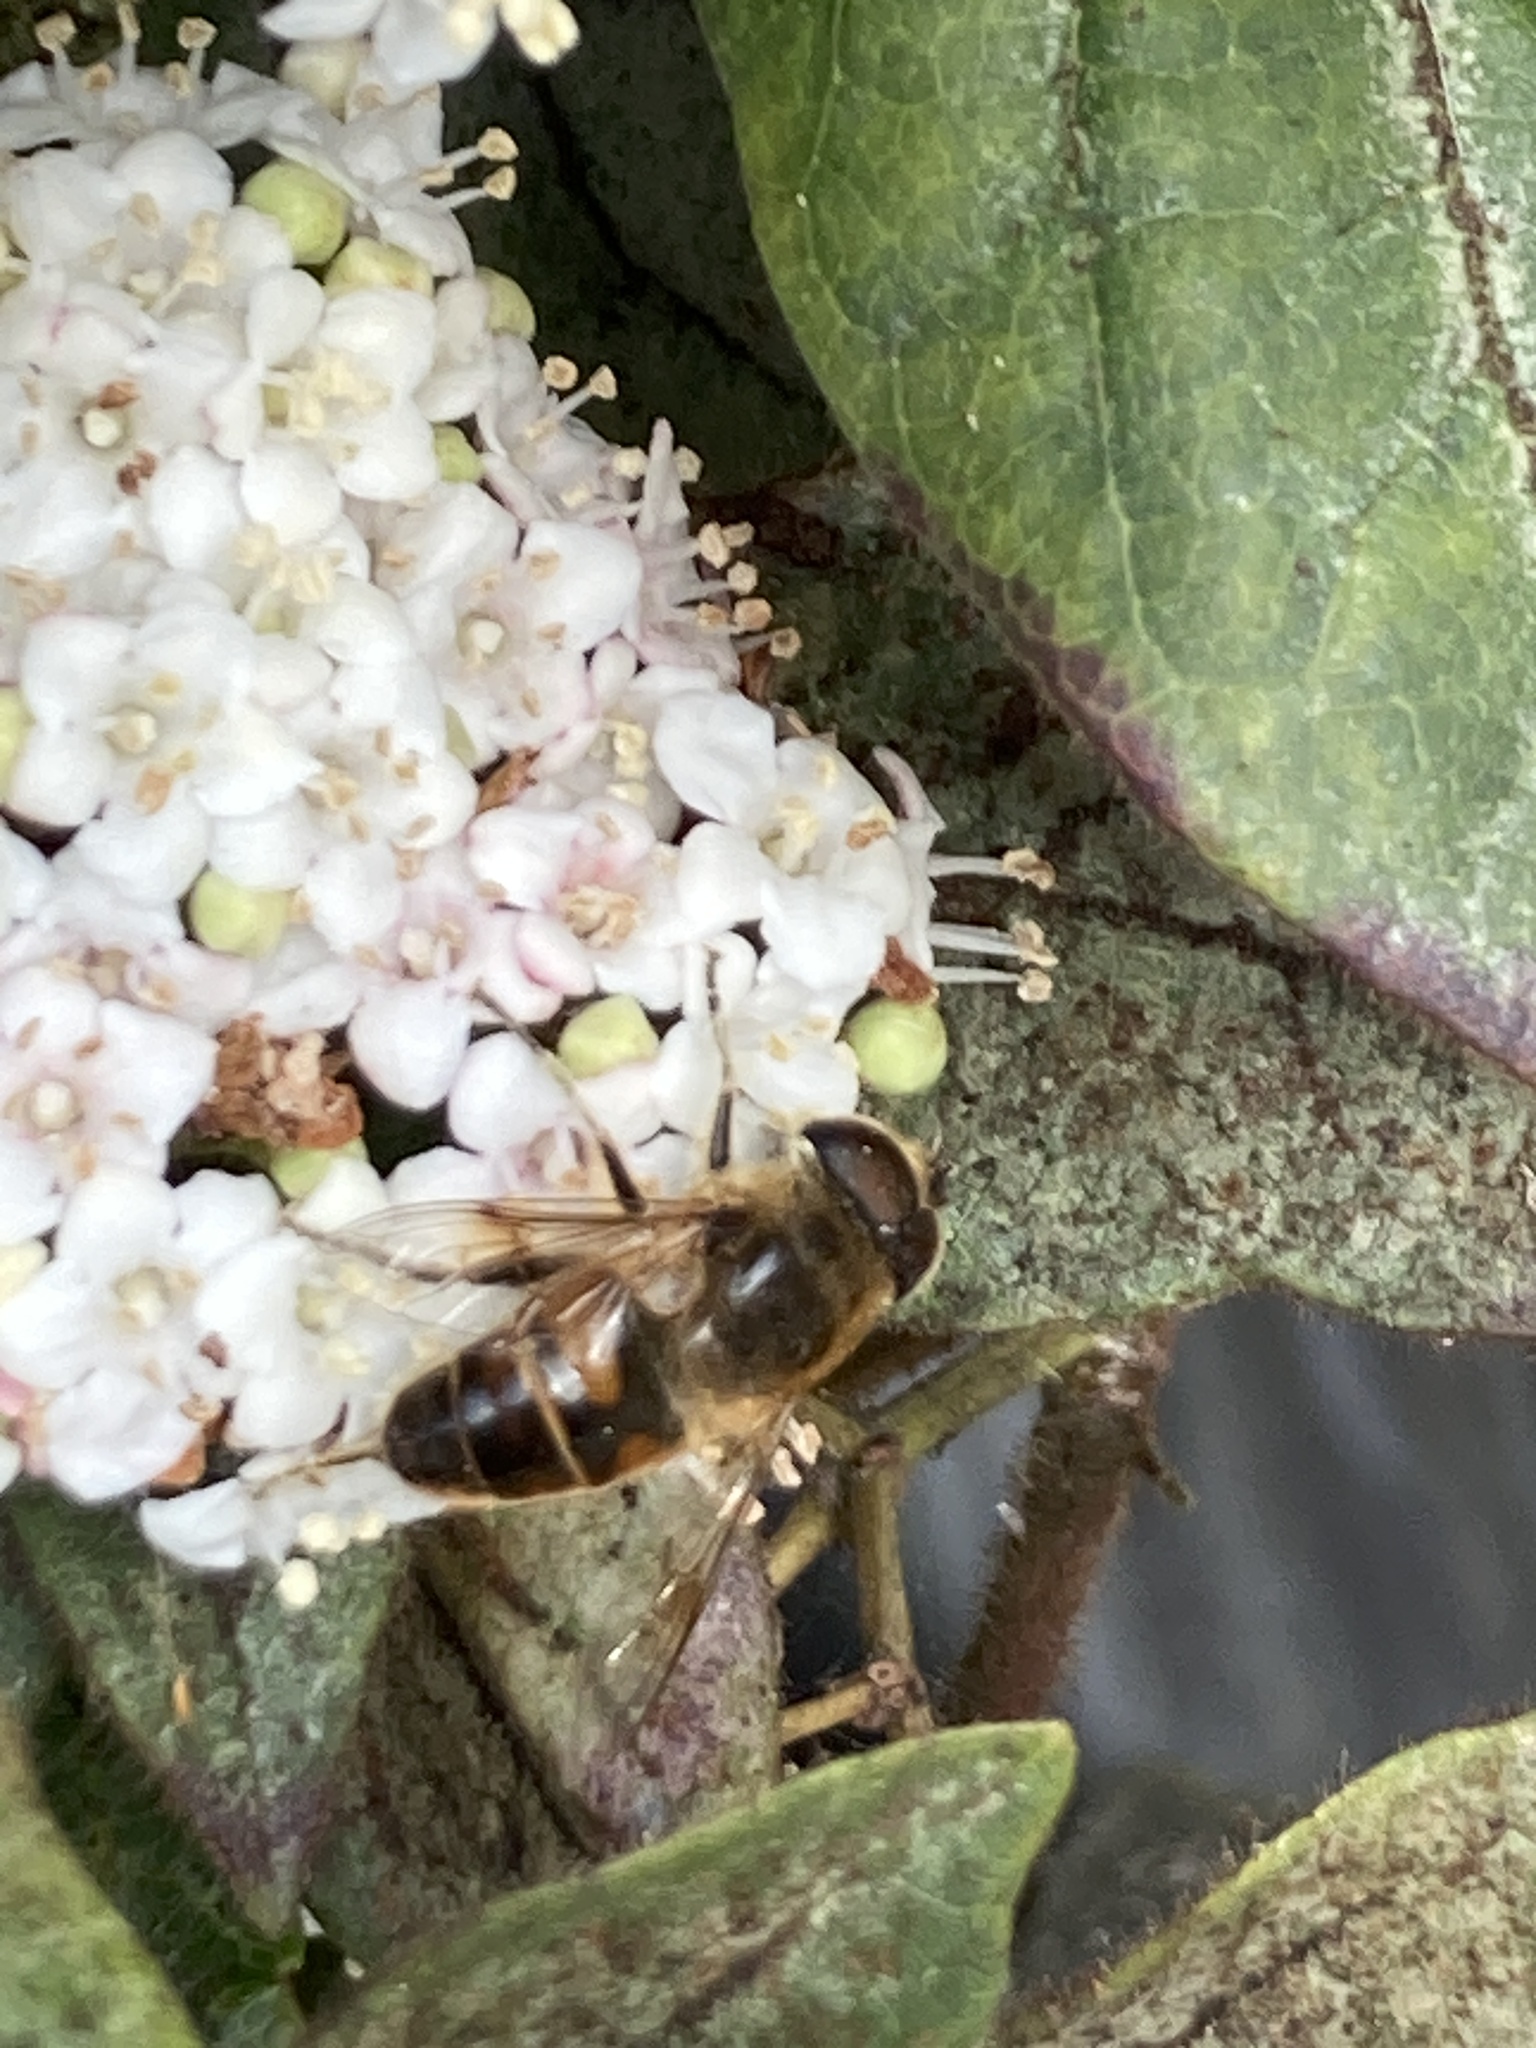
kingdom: Animalia
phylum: Arthropoda
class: Insecta
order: Diptera
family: Syrphidae
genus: Eristalis
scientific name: Eristalis tenax
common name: Drone fly
